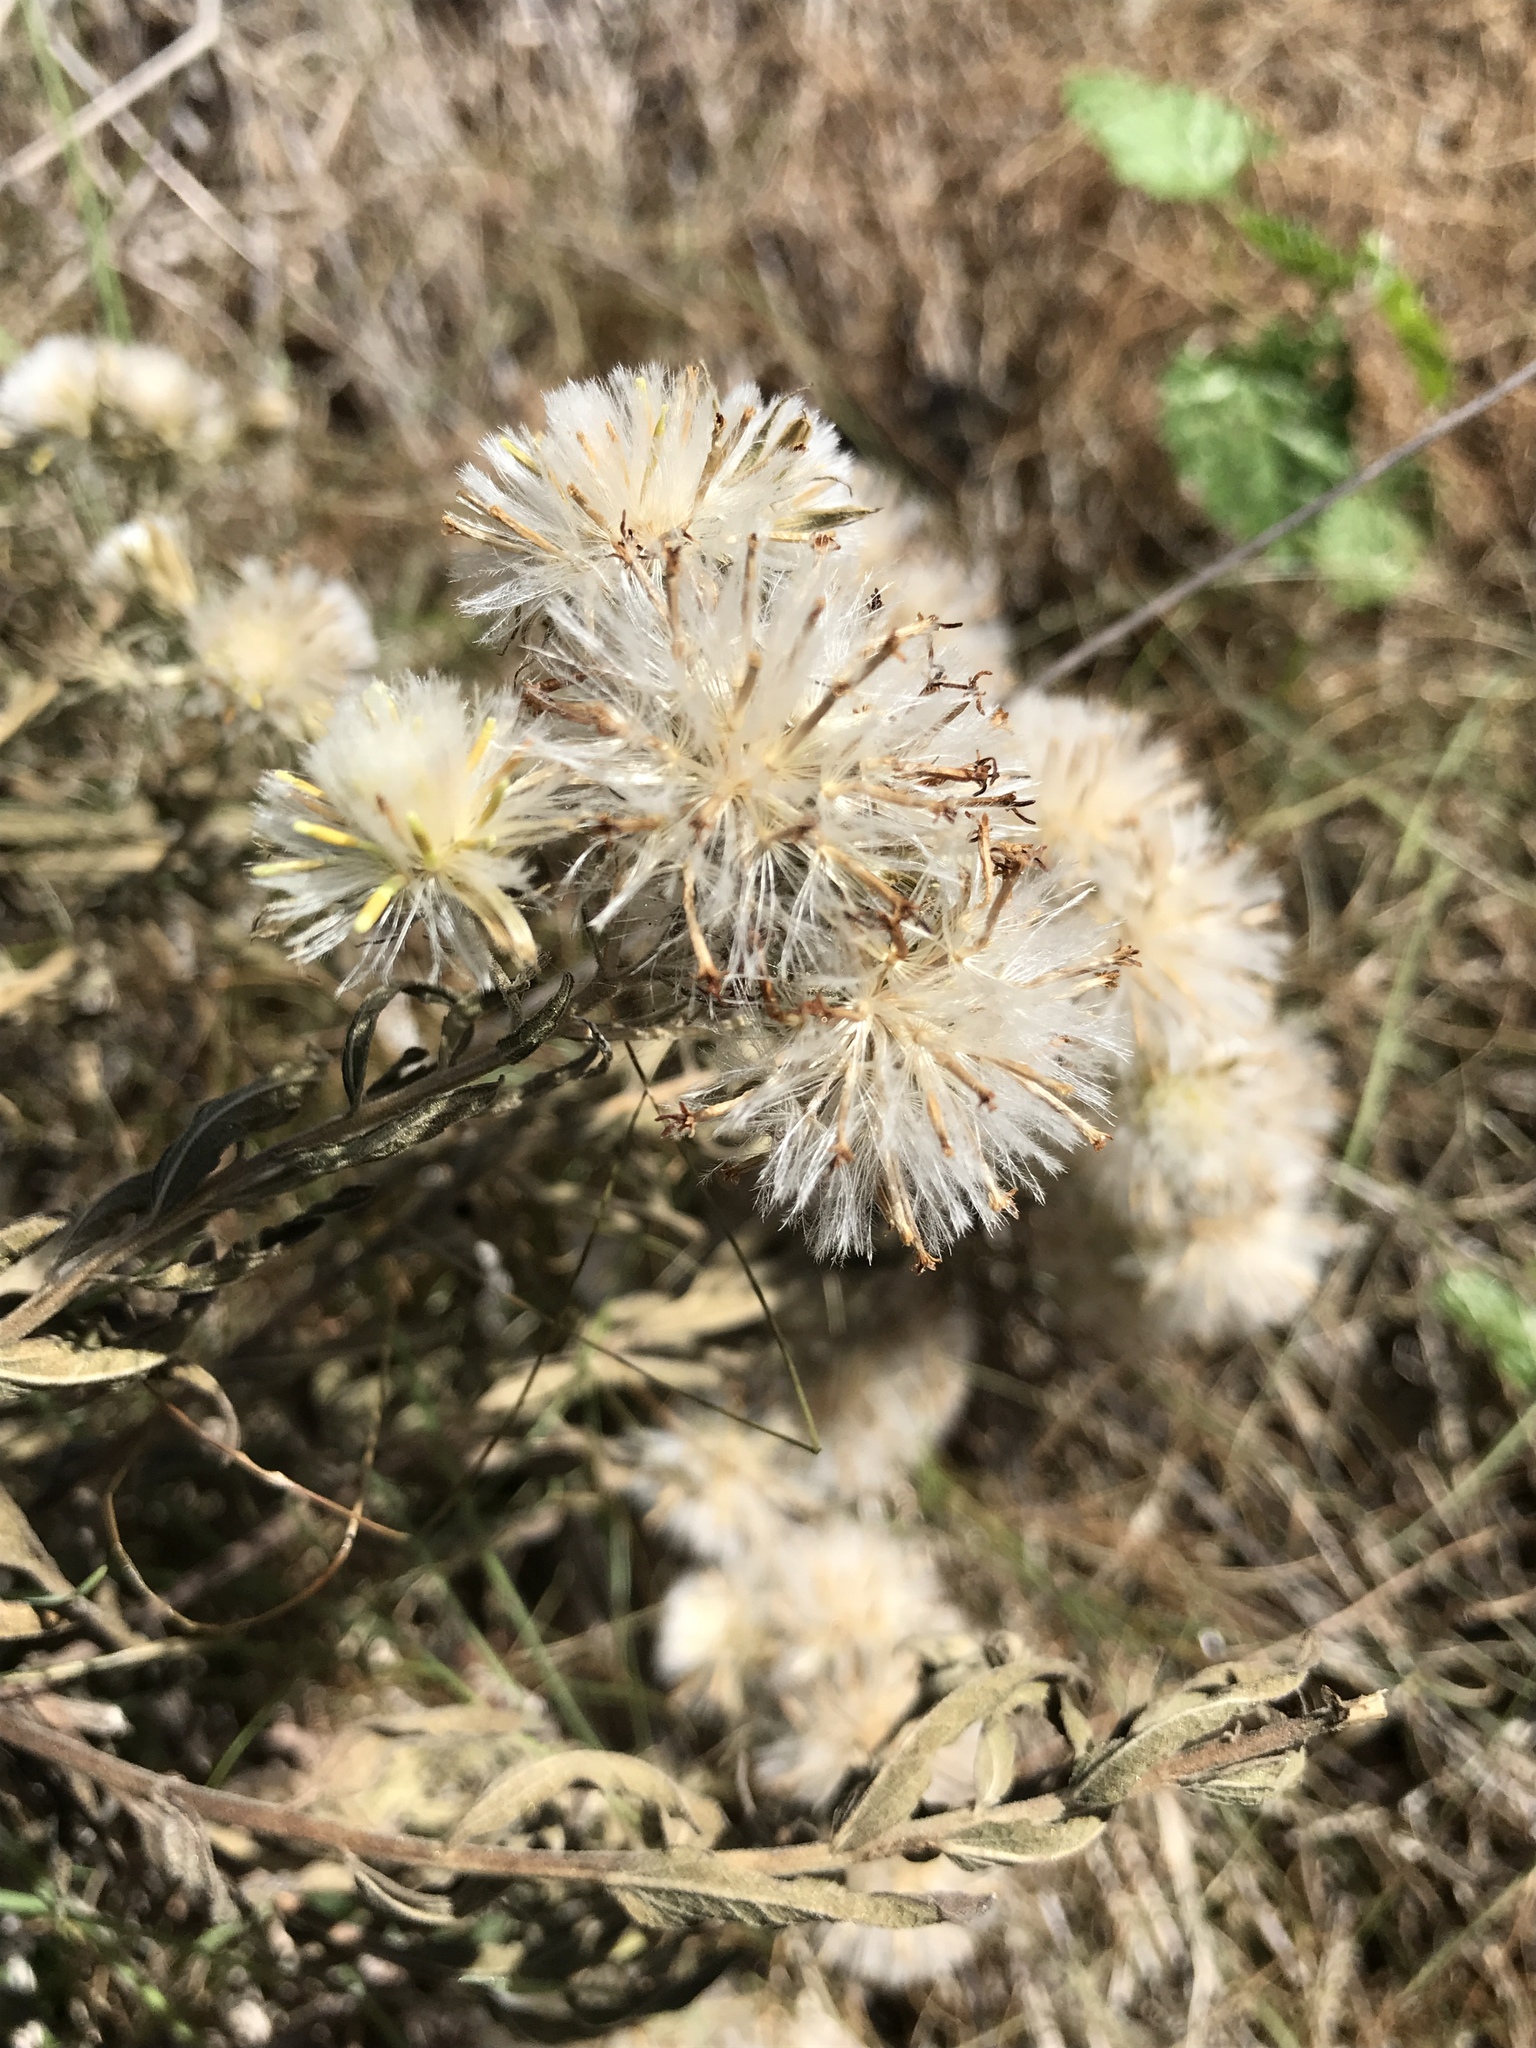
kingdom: Plantae
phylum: Tracheophyta
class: Magnoliopsida
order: Asterales
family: Asteraceae
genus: Brickellia
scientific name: Brickellia eupatorioides
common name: False boneset
